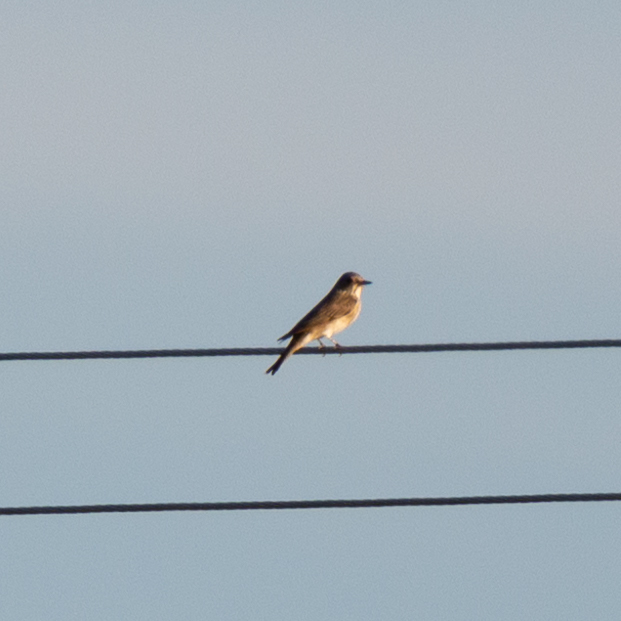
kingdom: Animalia
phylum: Chordata
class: Aves
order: Passeriformes
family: Muscicapidae
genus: Muscicapa
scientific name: Muscicapa striata
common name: Spotted flycatcher
